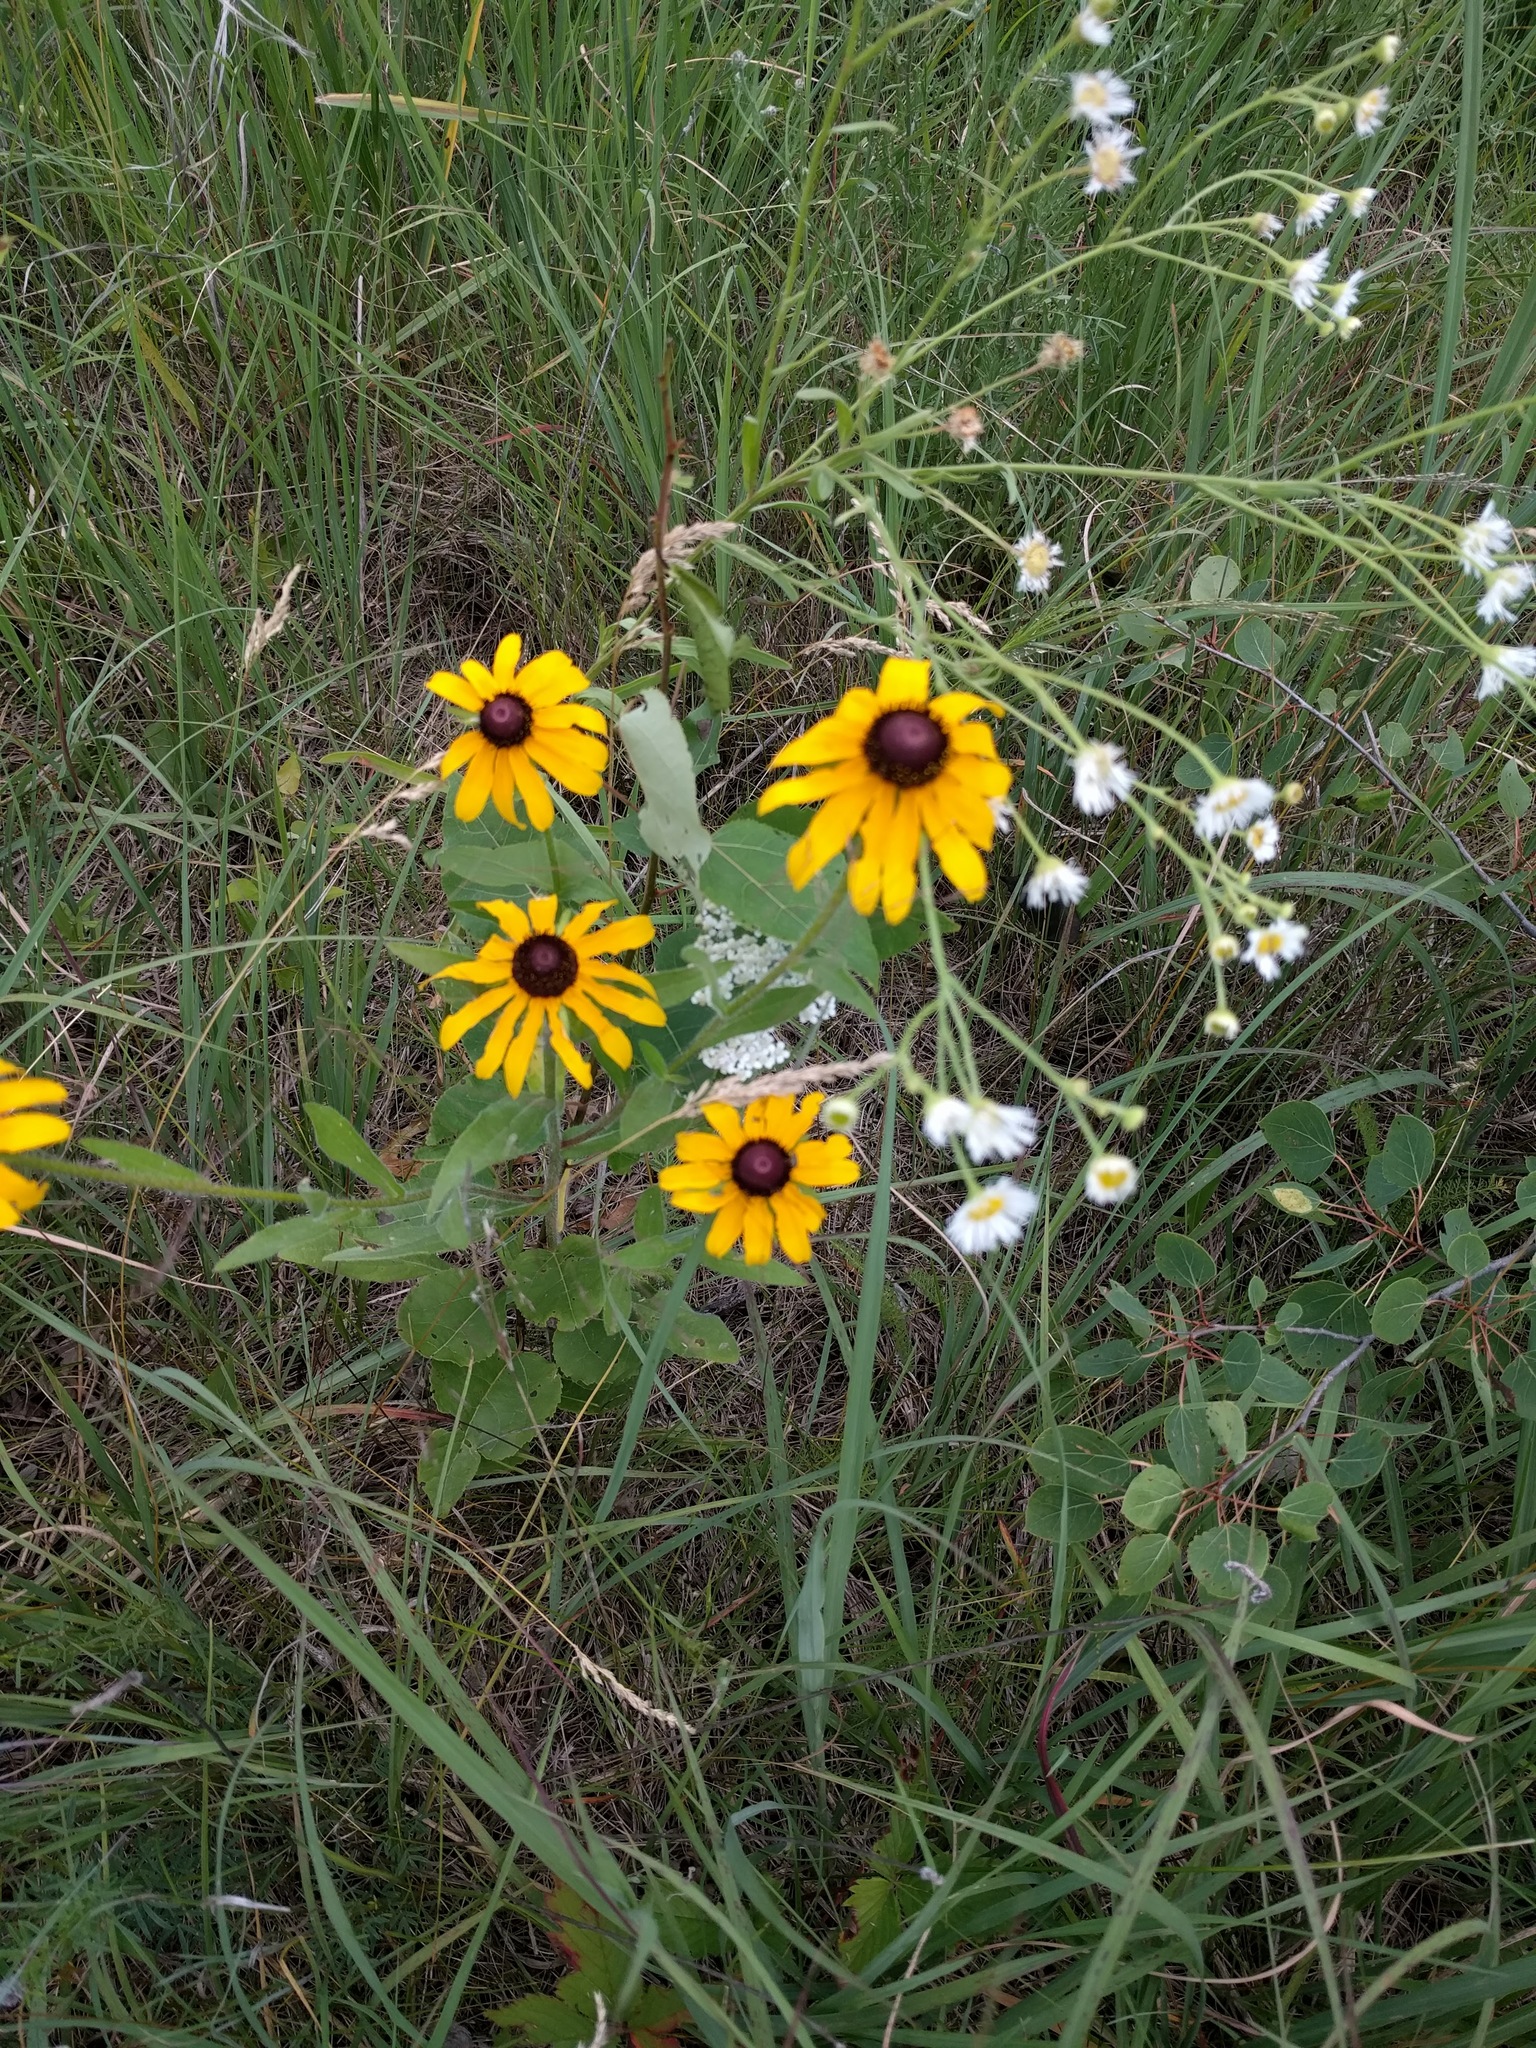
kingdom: Plantae
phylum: Tracheophyta
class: Magnoliopsida
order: Asterales
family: Asteraceae
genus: Rudbeckia
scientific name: Rudbeckia hirta
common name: Black-eyed-susan
